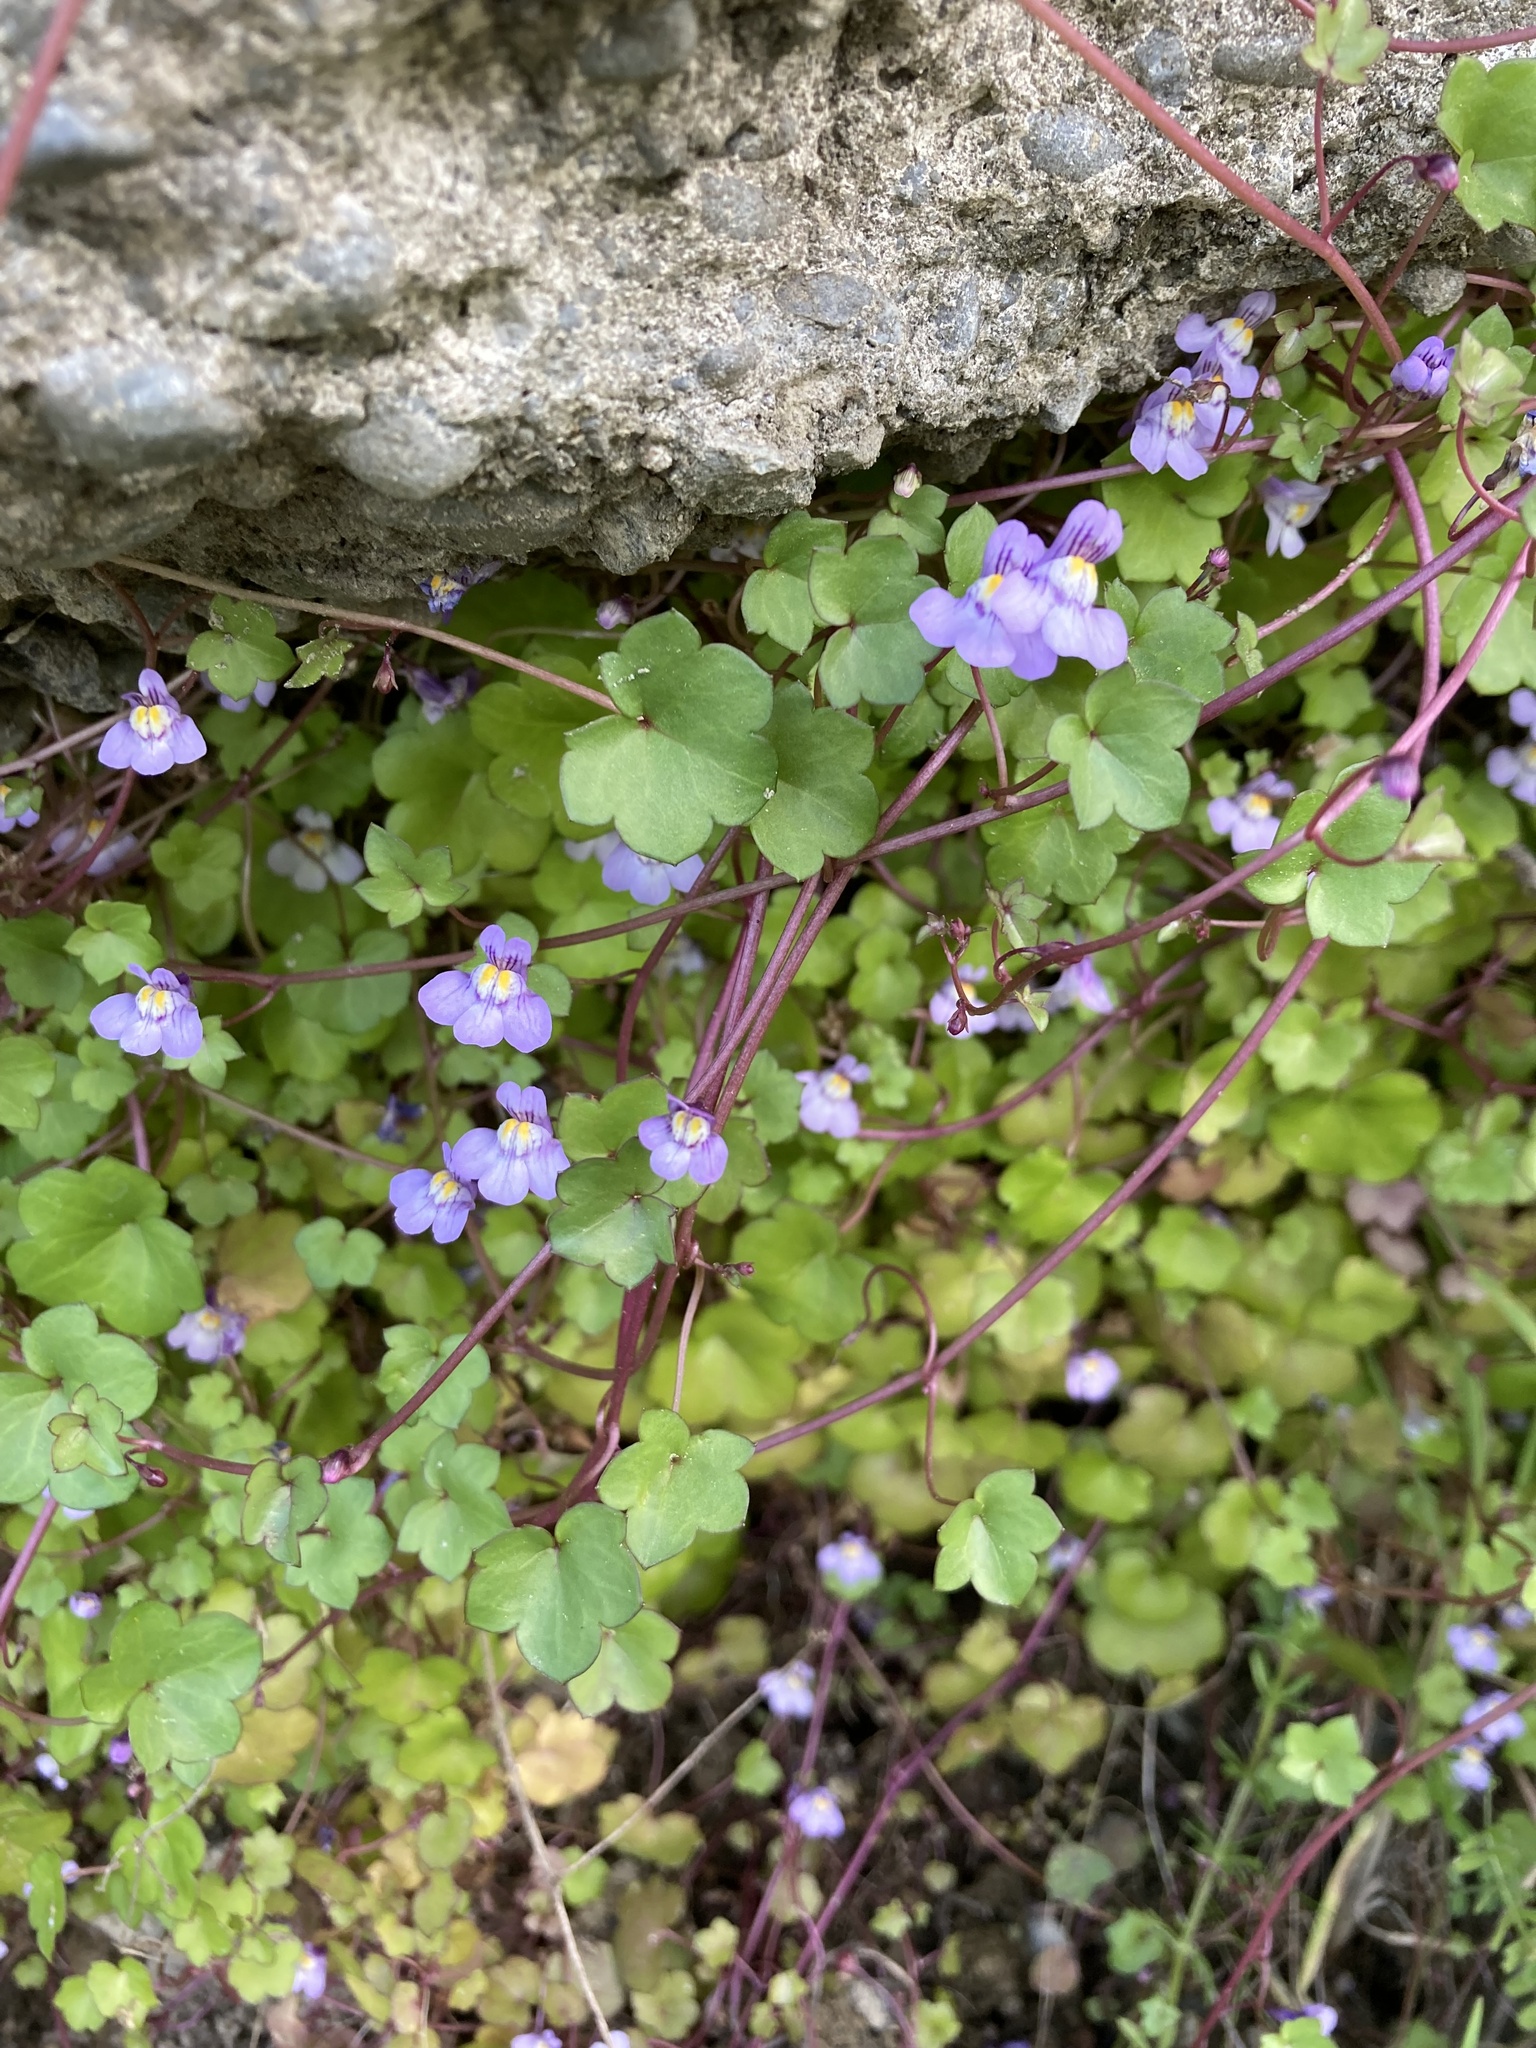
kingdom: Plantae
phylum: Tracheophyta
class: Magnoliopsida
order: Lamiales
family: Plantaginaceae
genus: Cymbalaria
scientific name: Cymbalaria muralis
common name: Ivy-leaved toadflax
